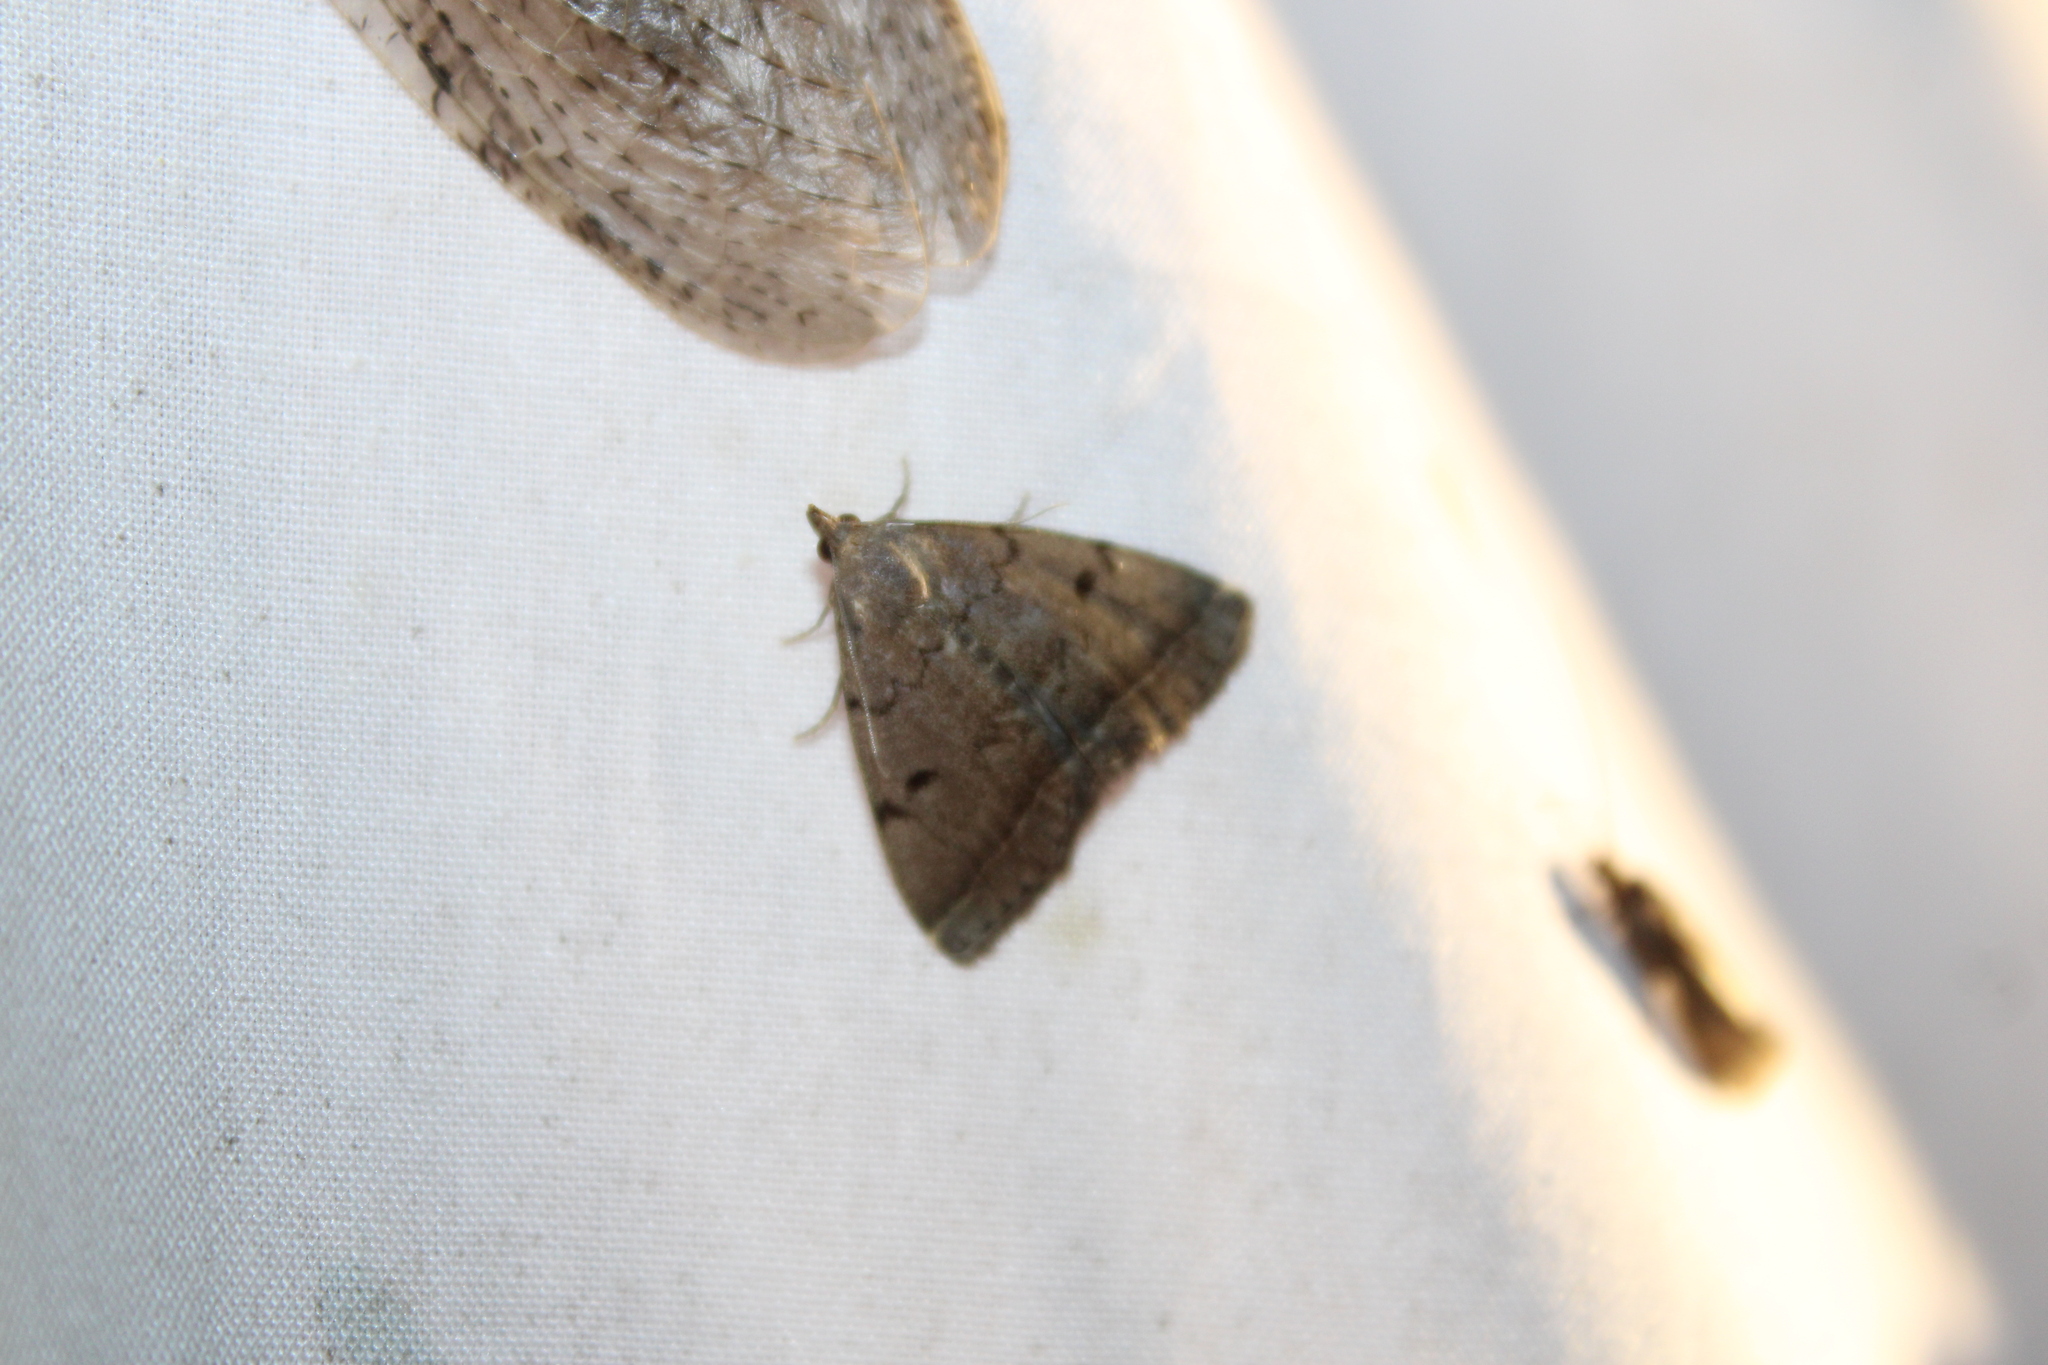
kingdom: Animalia
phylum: Arthropoda
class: Insecta
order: Lepidoptera
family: Erebidae
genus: Zanclognatha
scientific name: Zanclognatha dentata
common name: Toothed fan-foot
